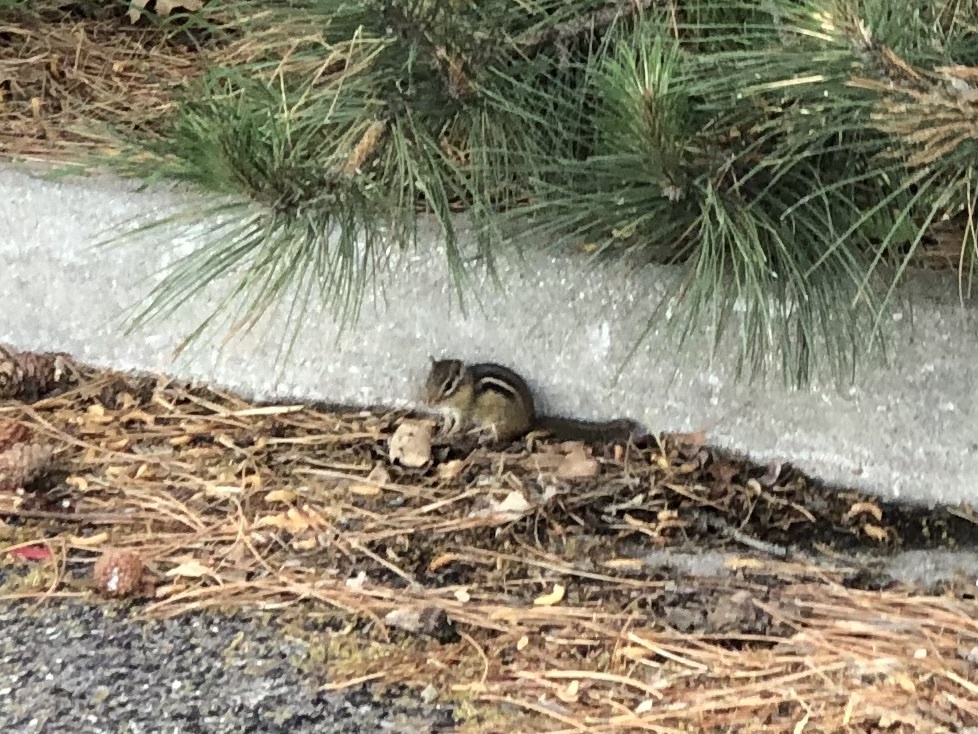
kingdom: Animalia
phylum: Chordata
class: Mammalia
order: Rodentia
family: Sciuridae
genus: Tamias
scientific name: Tamias striatus
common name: Eastern chipmunk
